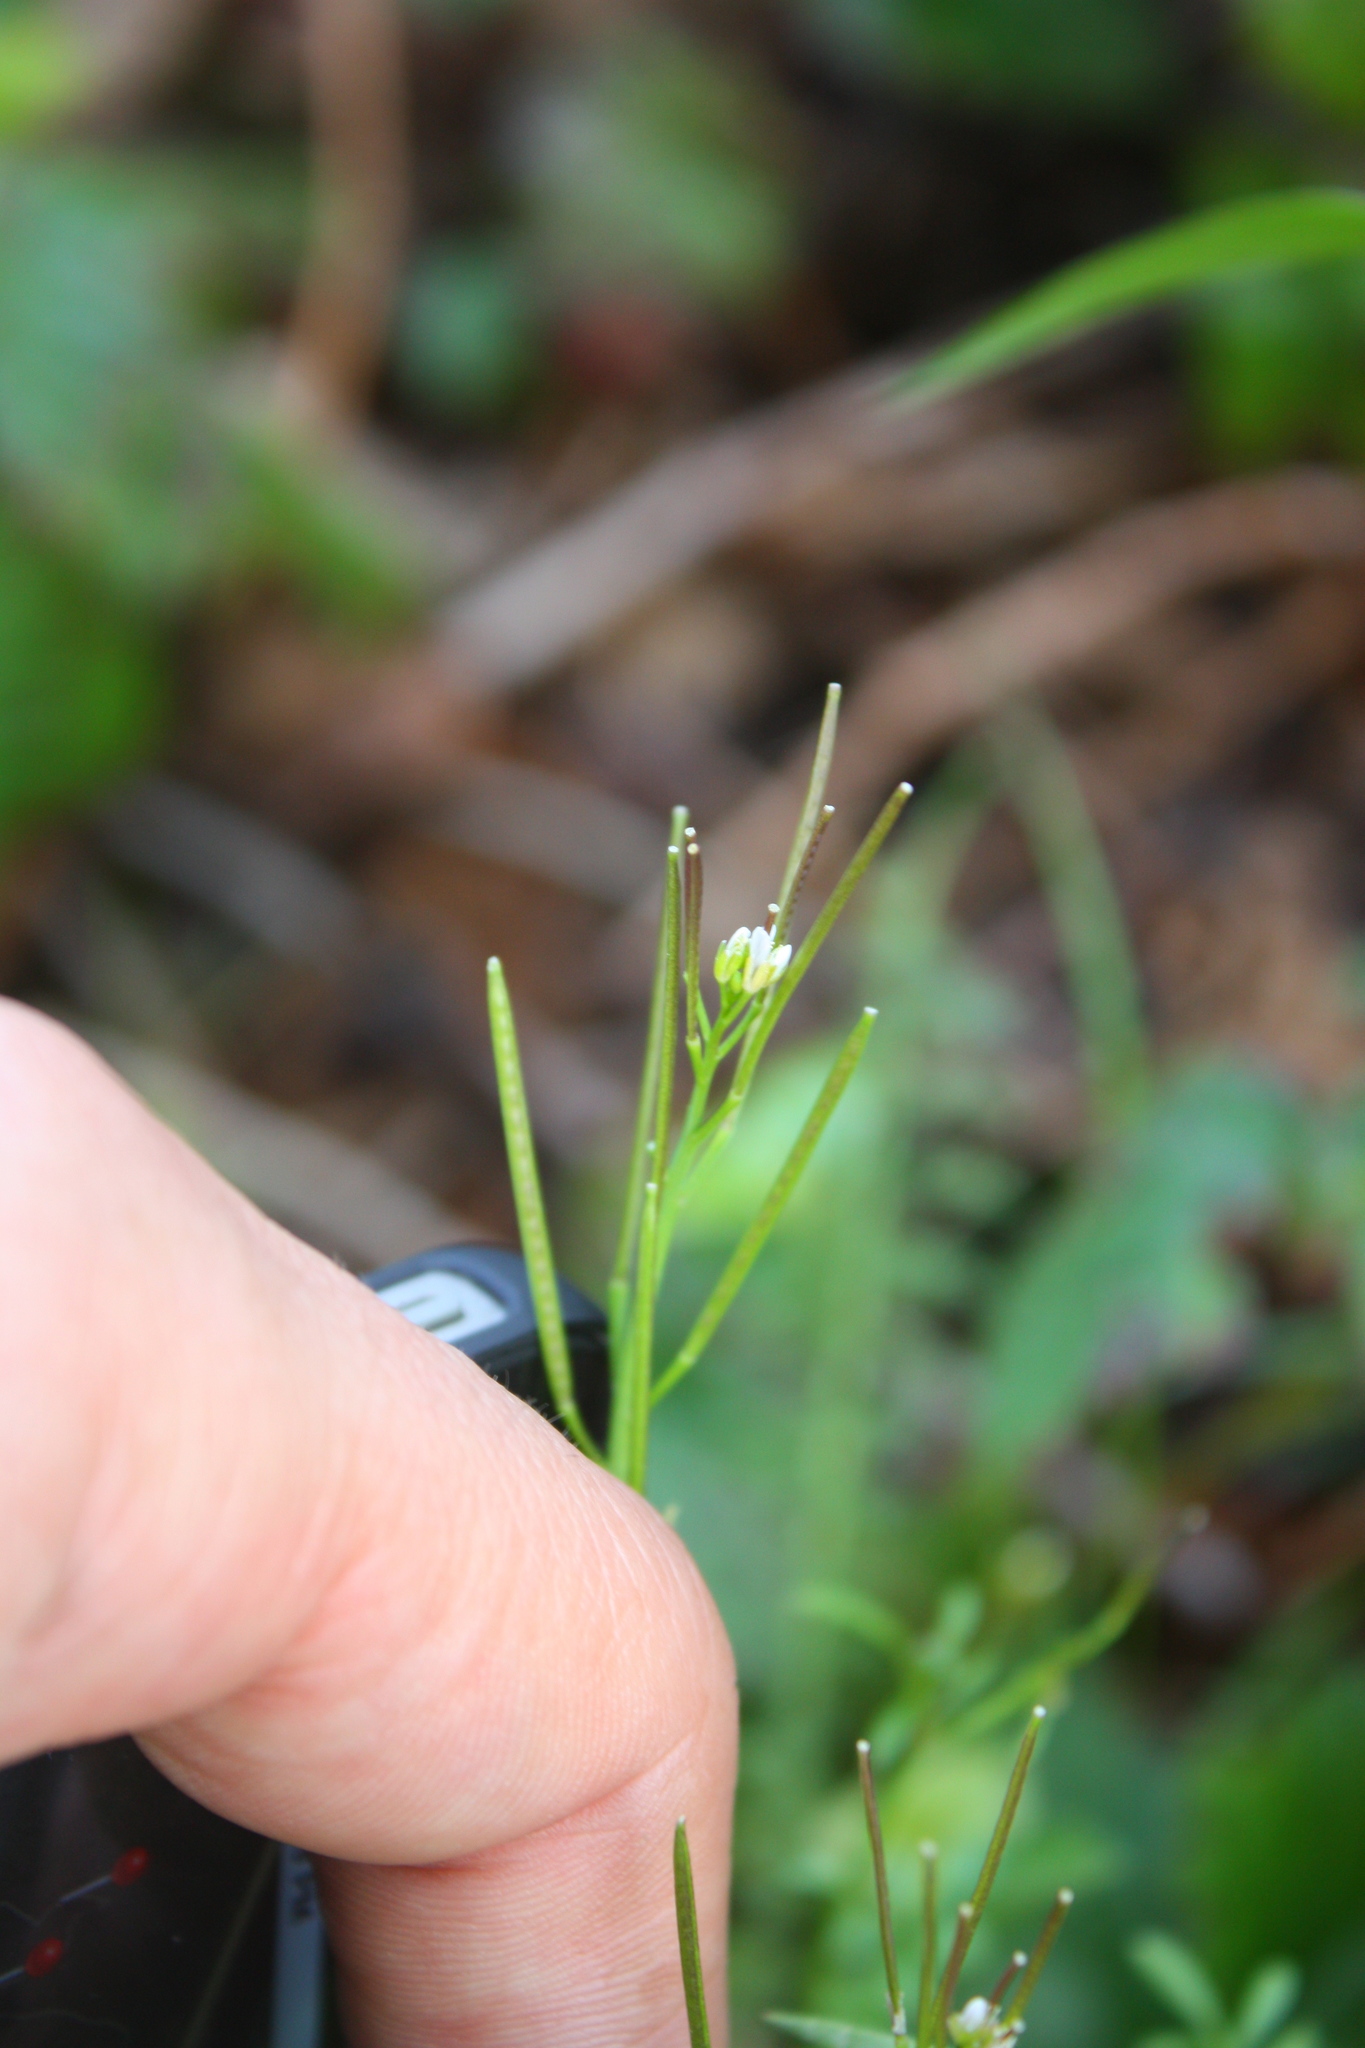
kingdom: Plantae
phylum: Tracheophyta
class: Magnoliopsida
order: Brassicales
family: Brassicaceae
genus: Cardamine
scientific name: Cardamine hirsuta
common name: Hairy bittercress
